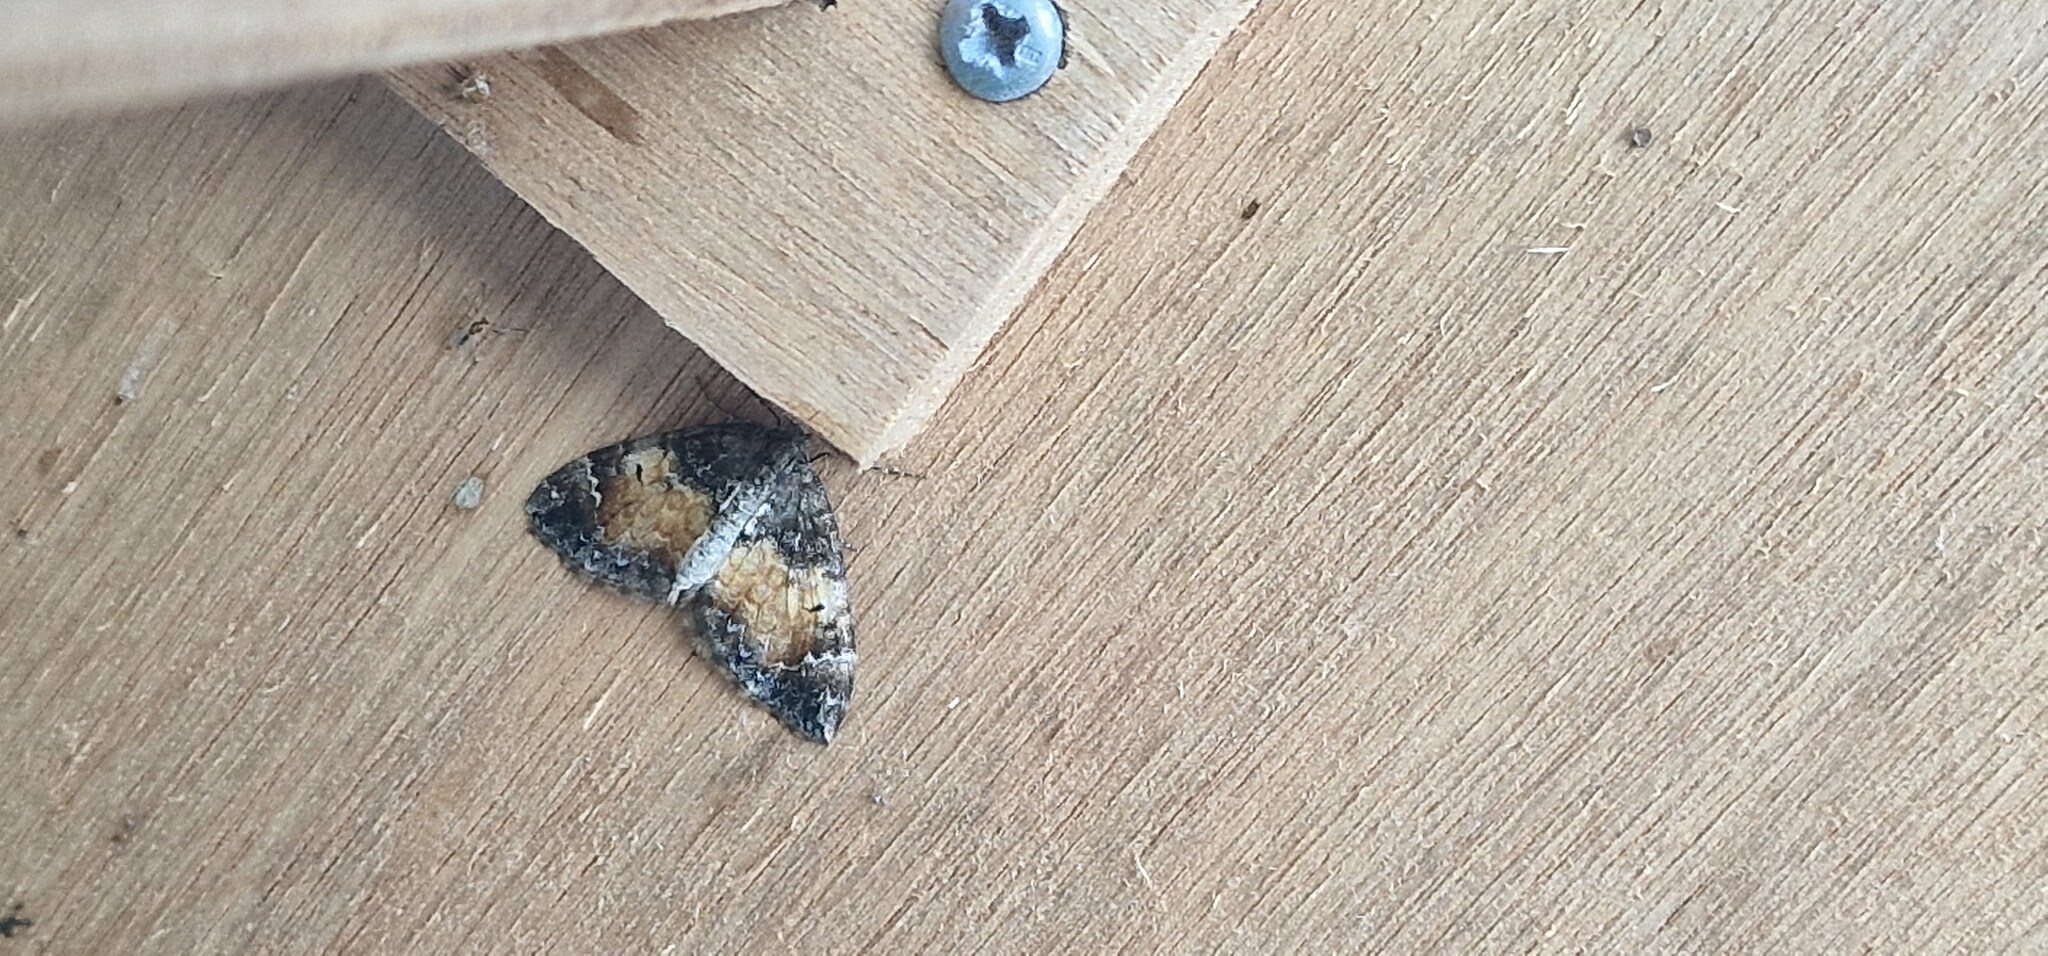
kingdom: Animalia
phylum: Arthropoda
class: Insecta
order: Lepidoptera
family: Geometridae
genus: Dysstroma
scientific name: Dysstroma truncata
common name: Common marbled carpet
